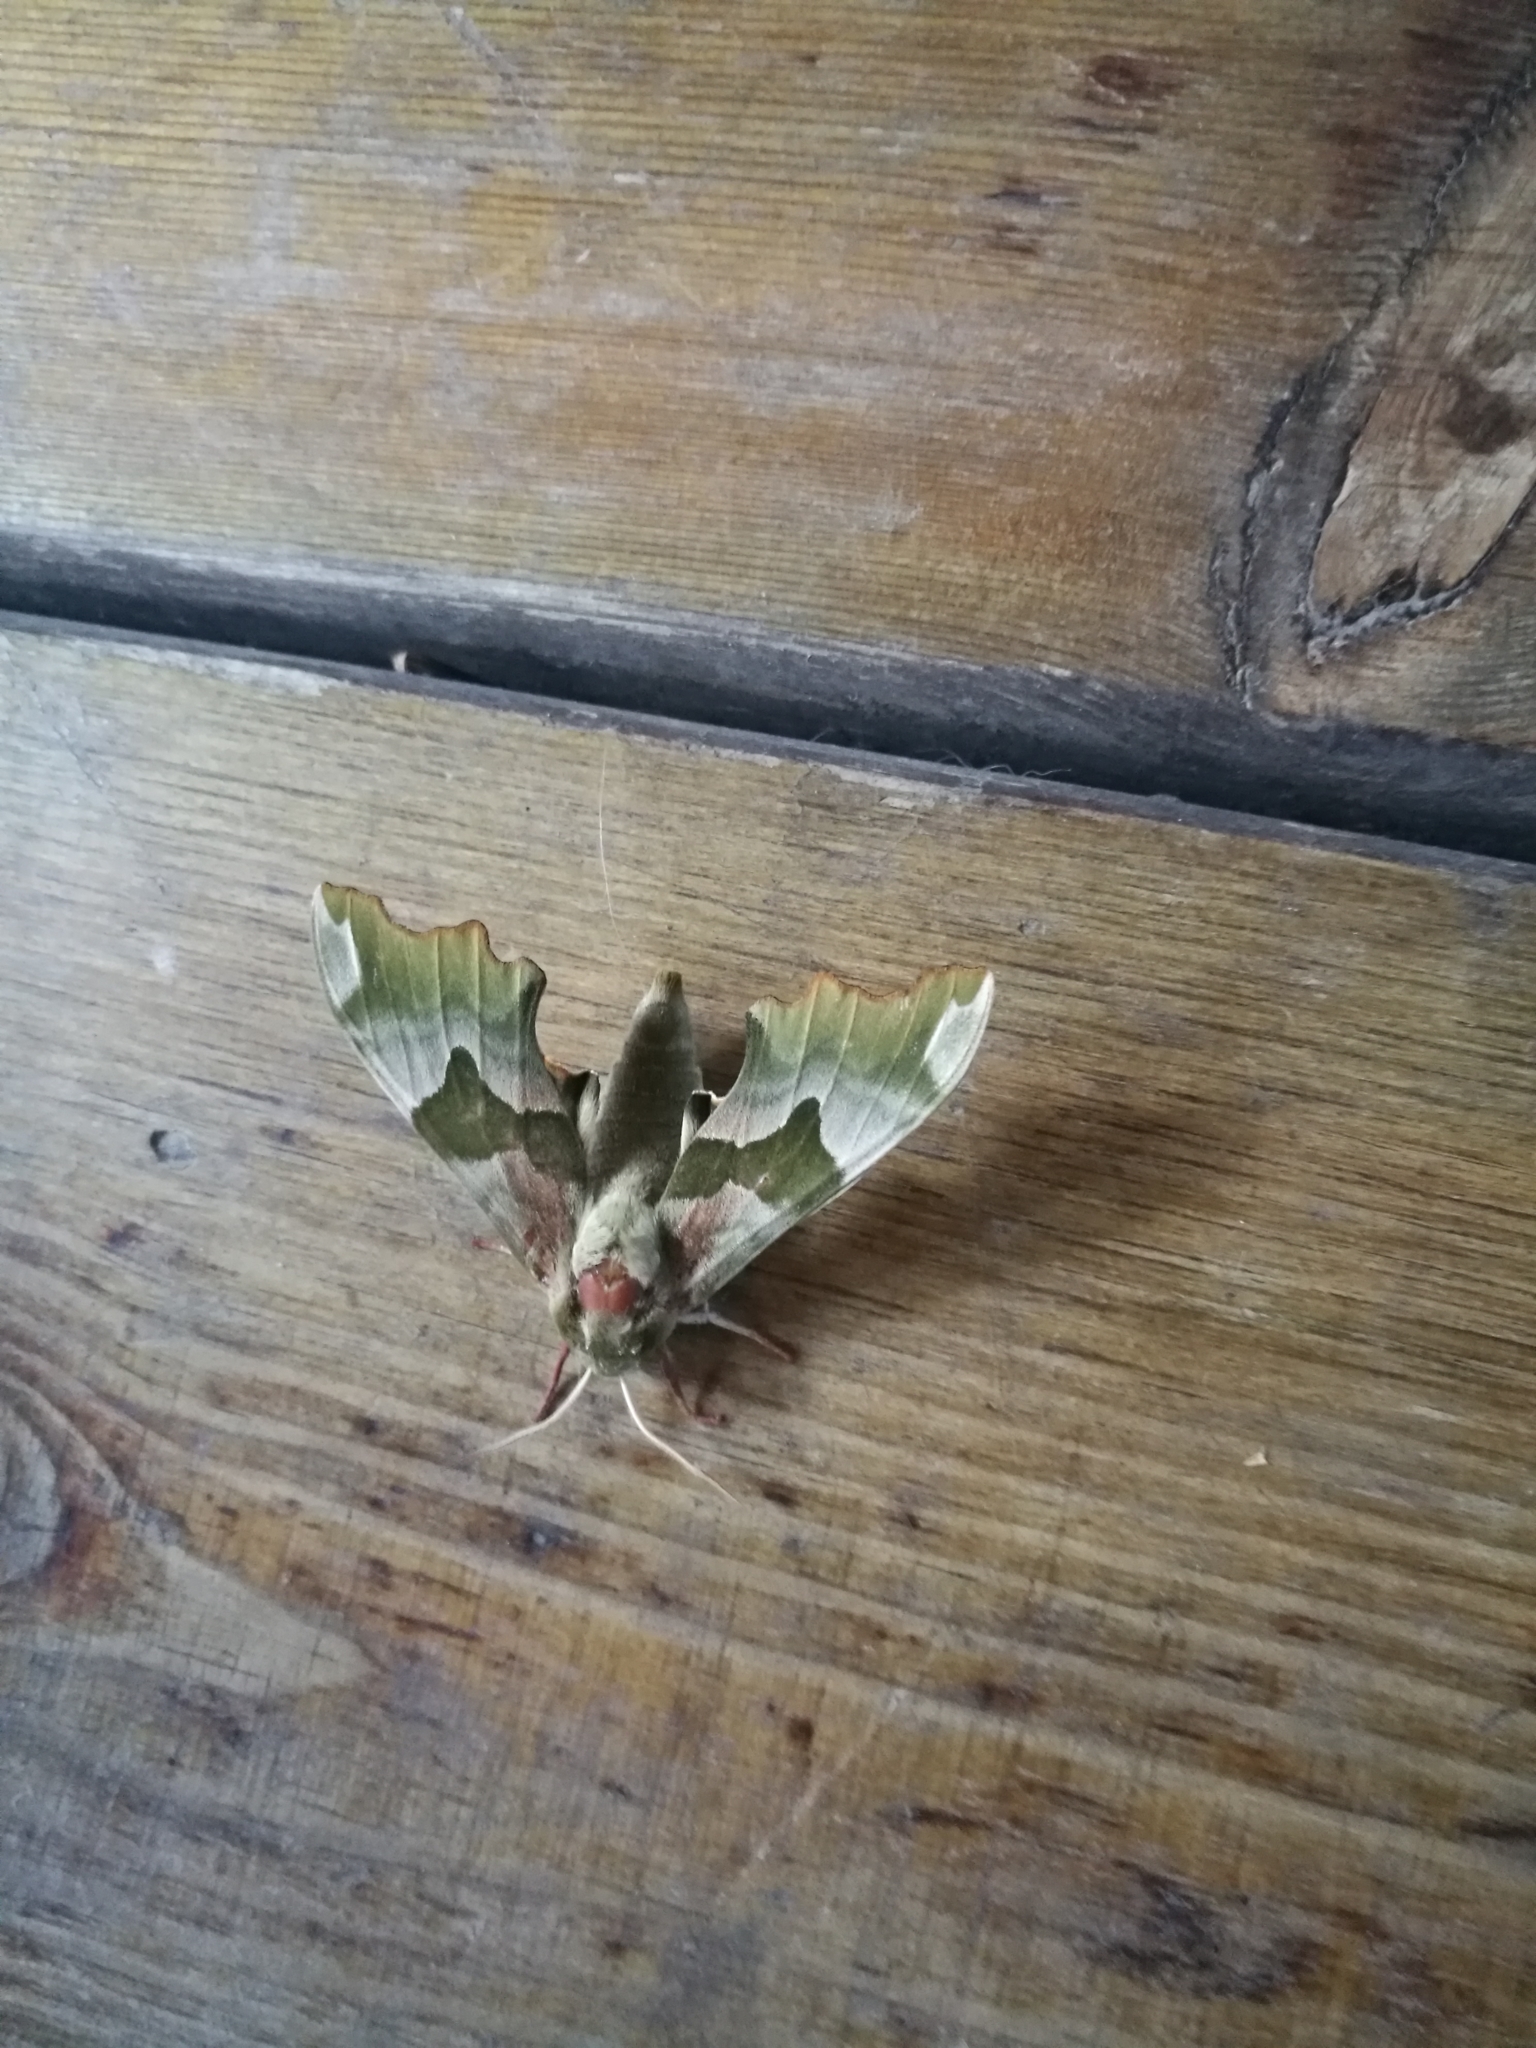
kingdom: Animalia
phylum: Arthropoda
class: Insecta
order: Lepidoptera
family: Sphingidae
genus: Mimas
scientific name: Mimas tiliae
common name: Lime hawk-moth
